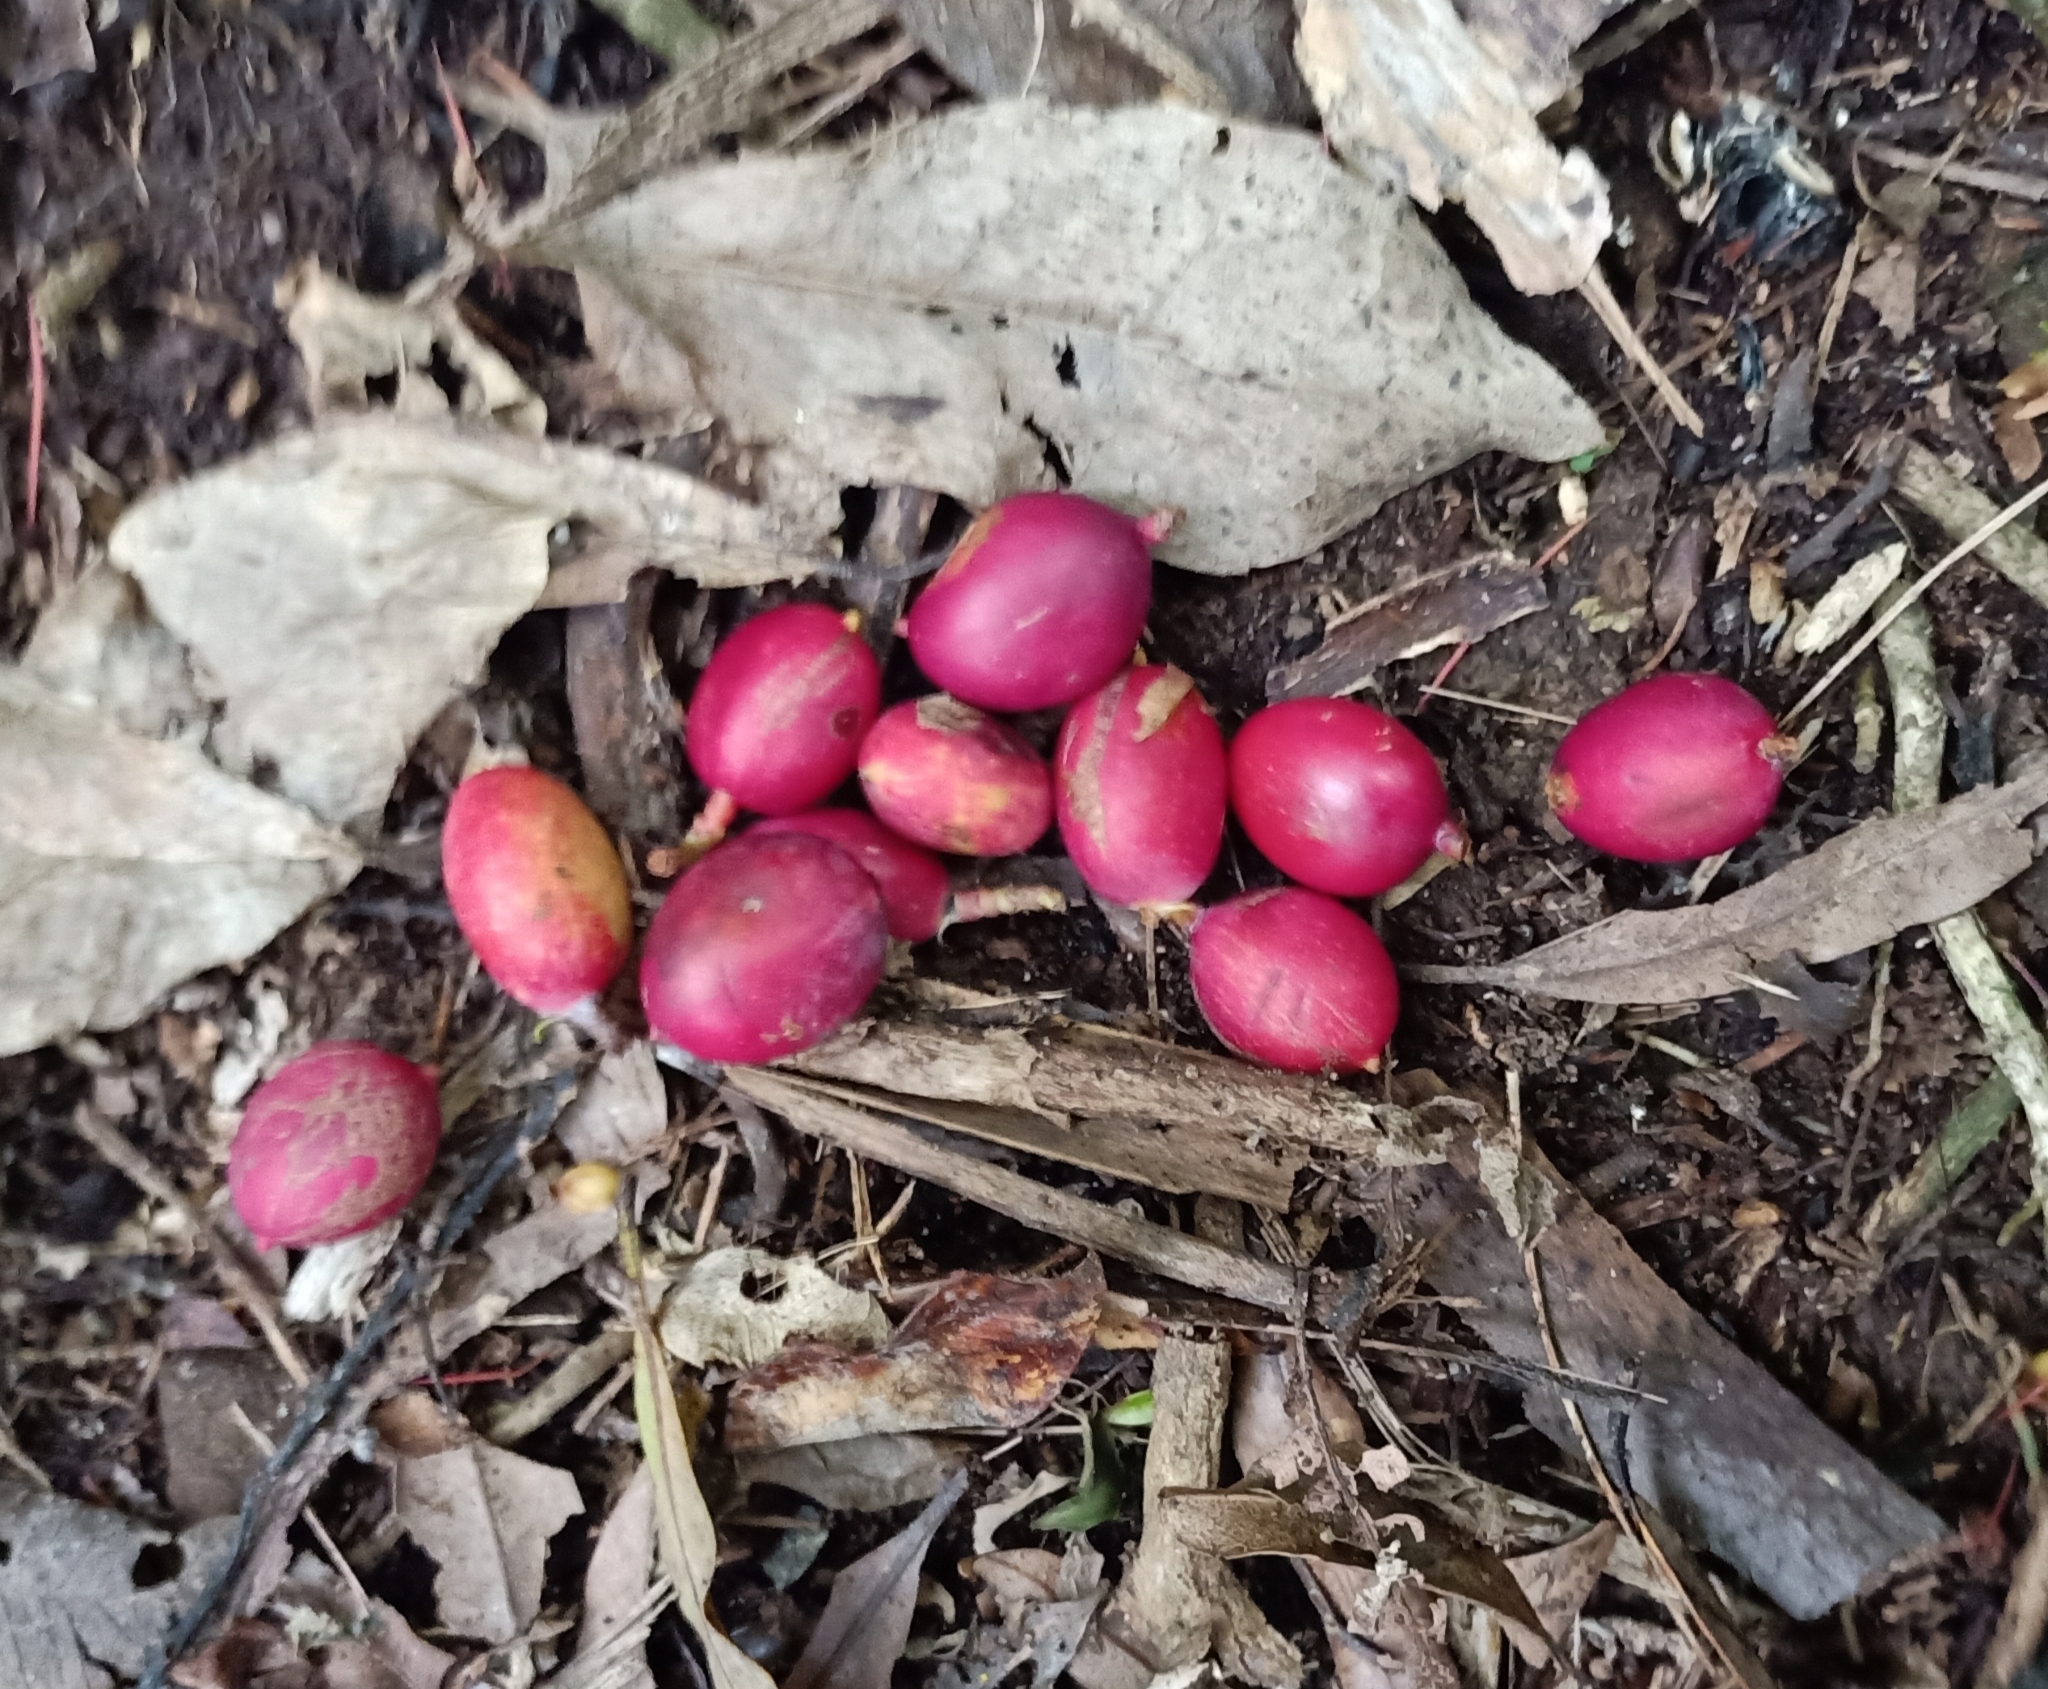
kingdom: Plantae
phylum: Tracheophyta
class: Pinopsida
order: Pinales
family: Podocarpaceae
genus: Prumnopitys
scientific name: Prumnopitys ferruginea
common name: Brown pine
